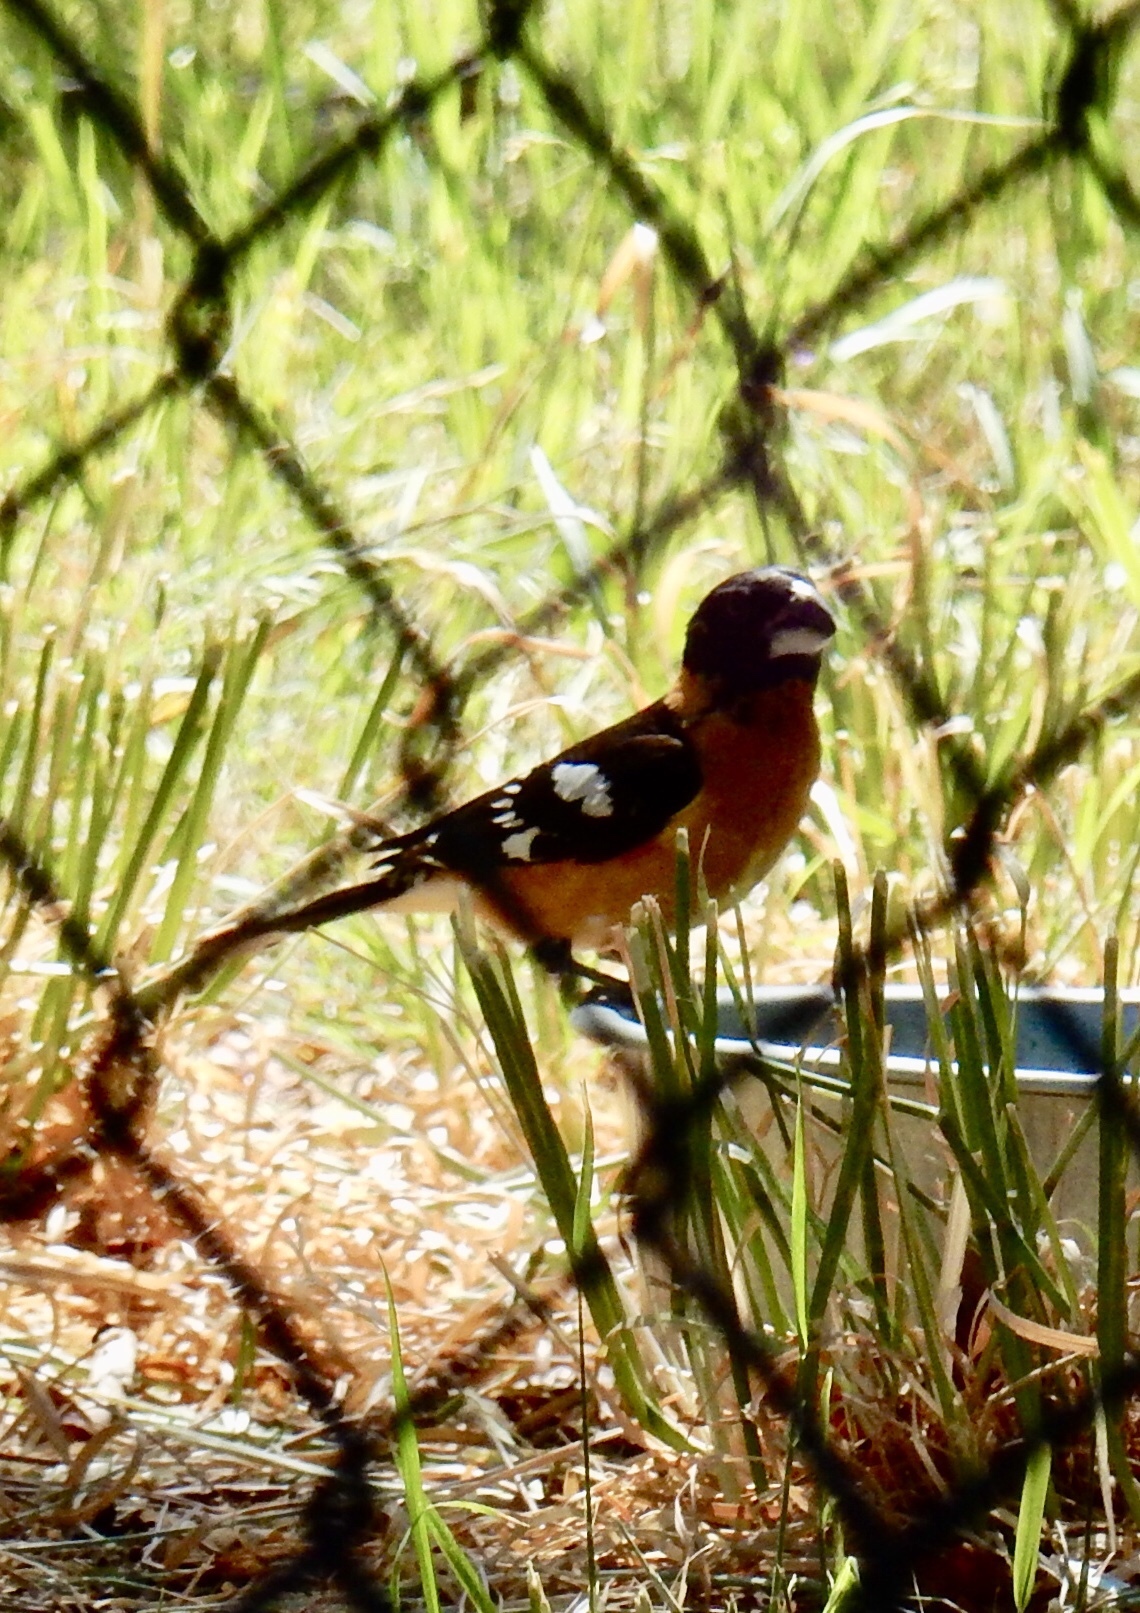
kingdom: Animalia
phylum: Chordata
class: Aves
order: Passeriformes
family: Cardinalidae
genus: Pheucticus
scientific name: Pheucticus melanocephalus
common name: Black-headed grosbeak
